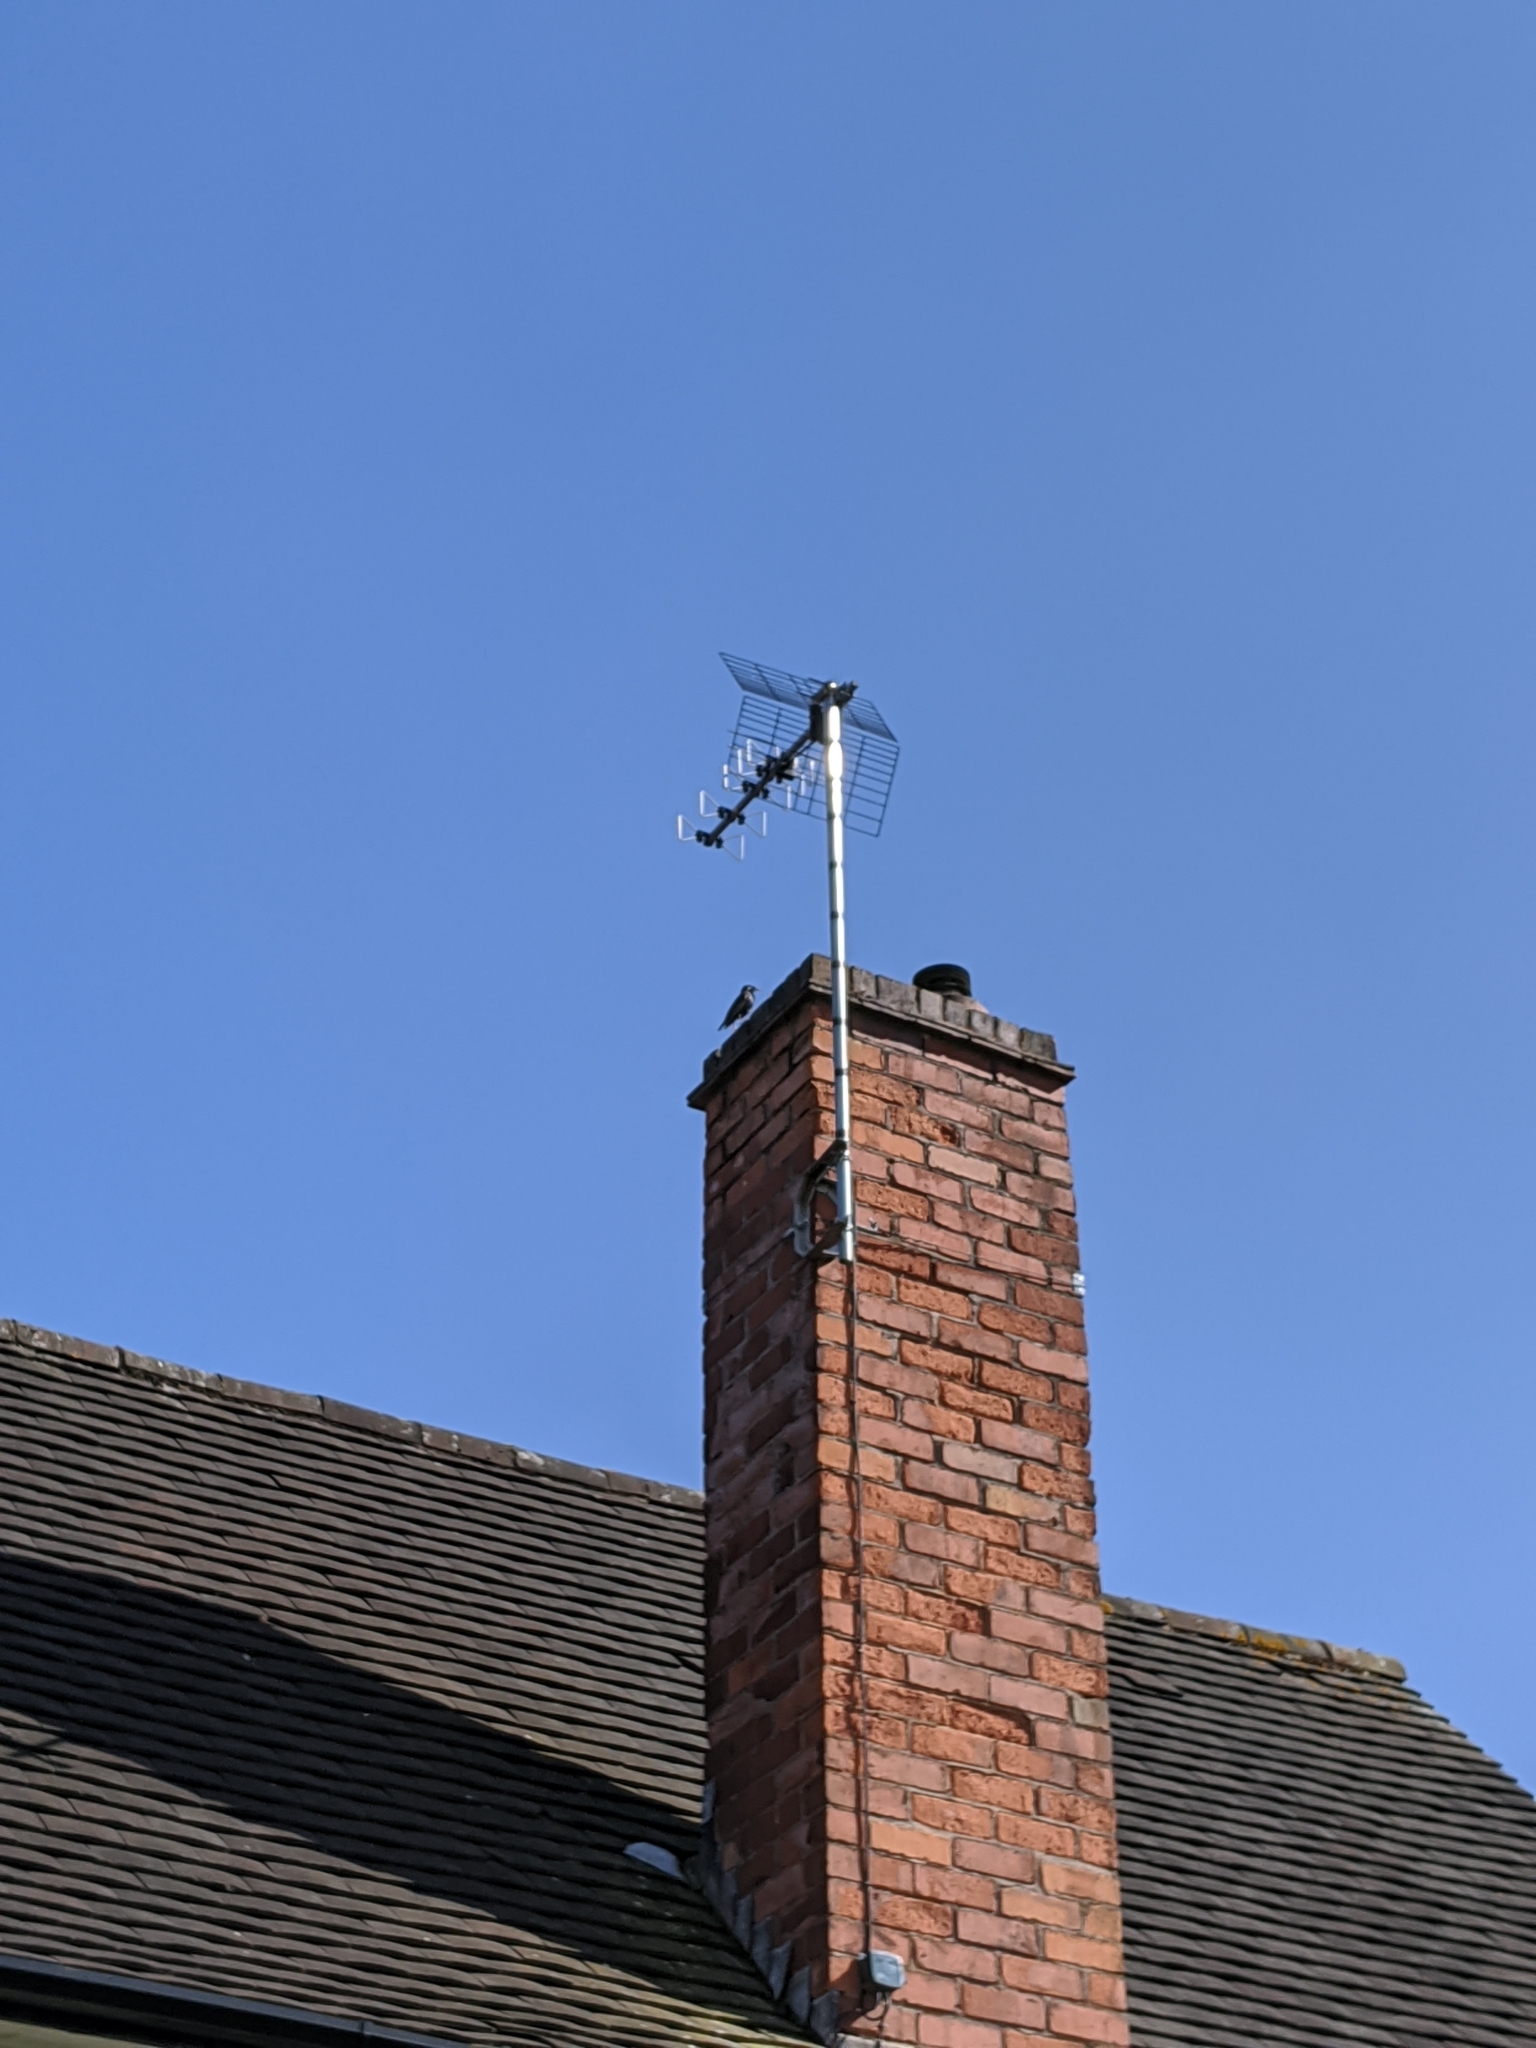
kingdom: Animalia
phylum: Chordata
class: Aves
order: Passeriformes
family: Sturnidae
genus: Sturnus
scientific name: Sturnus vulgaris
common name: Common starling
